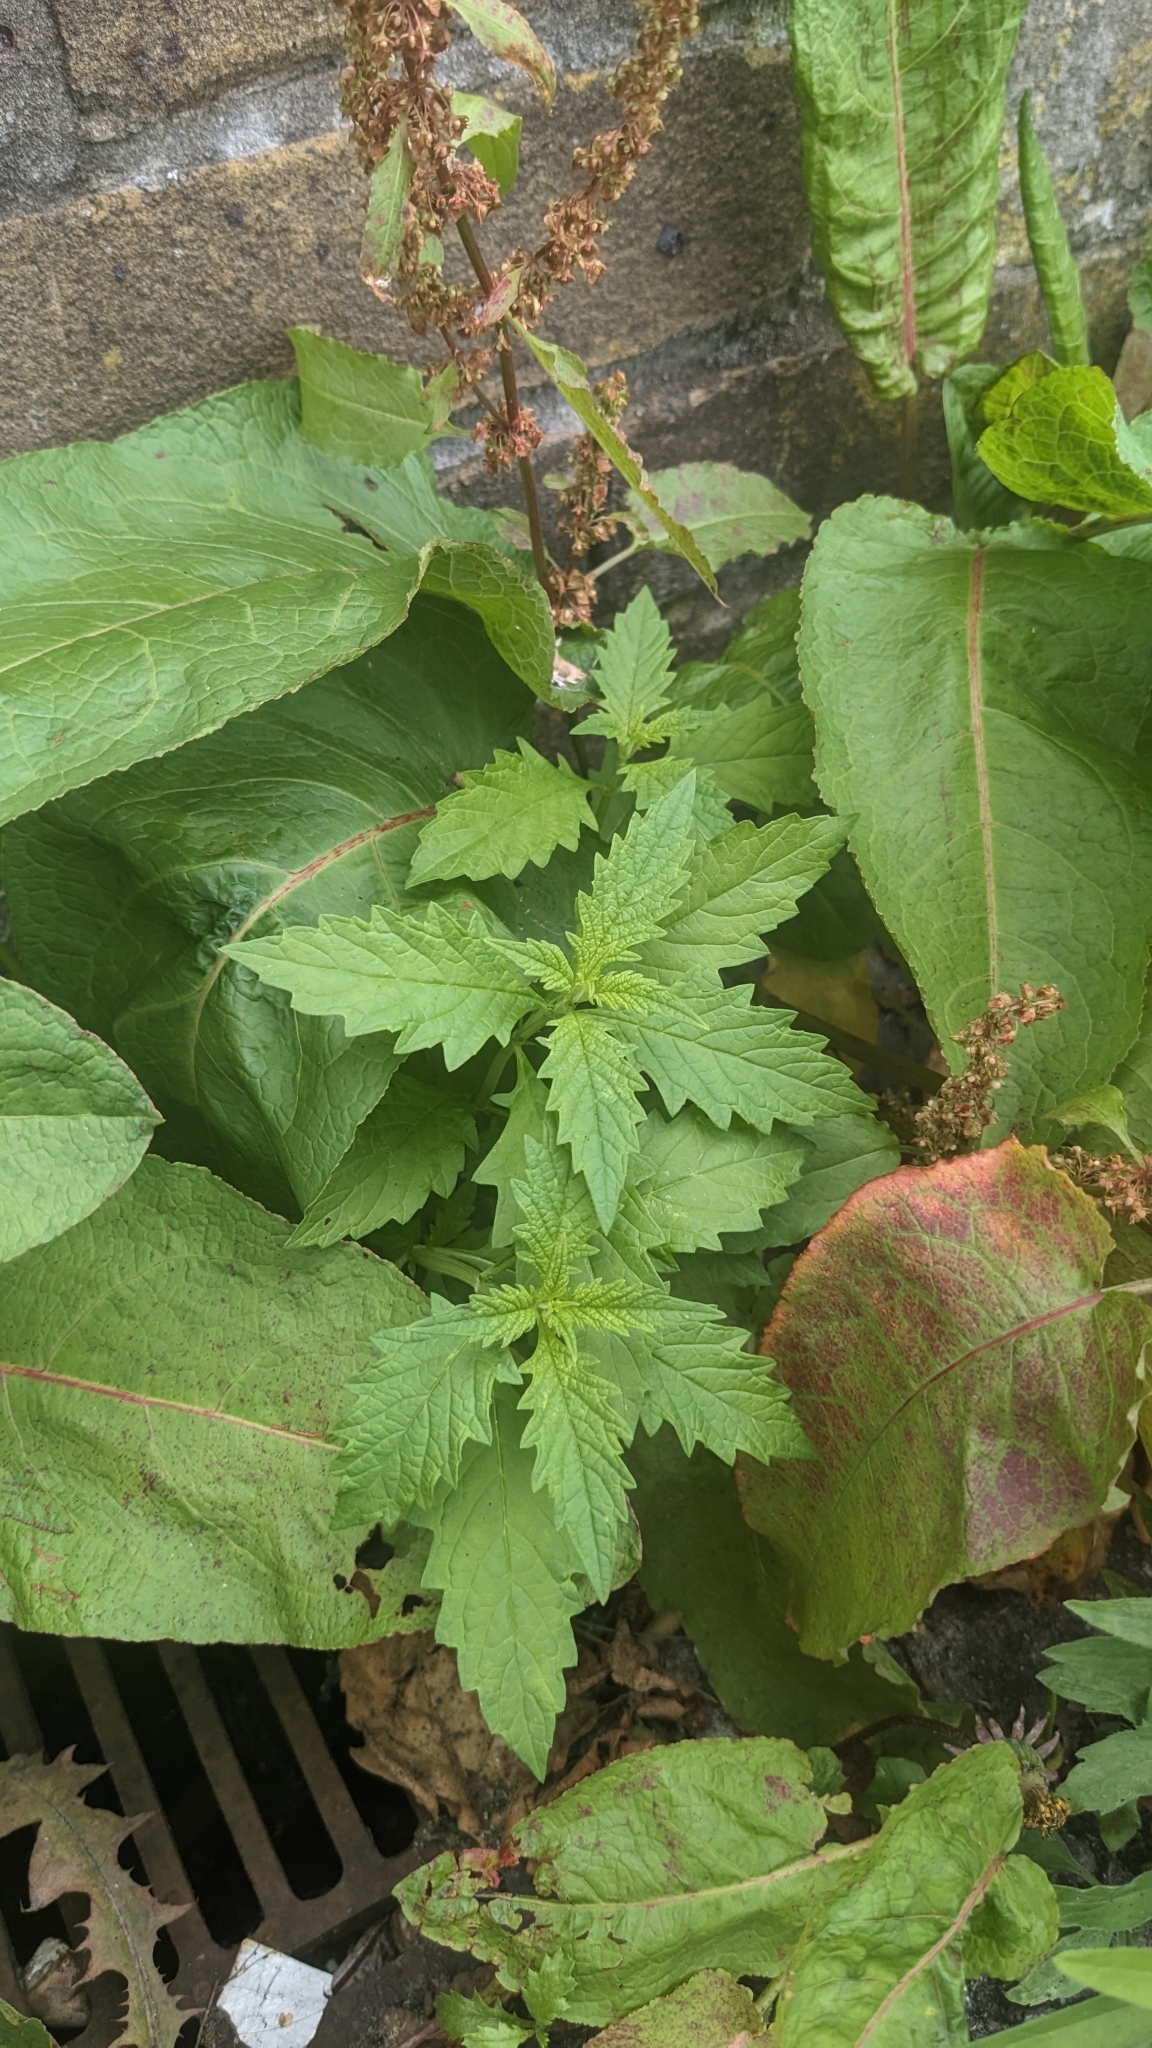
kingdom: Plantae
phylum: Tracheophyta
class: Magnoliopsida
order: Lamiales
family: Lamiaceae
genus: Lycopus
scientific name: Lycopus europaeus
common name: European bugleweed
